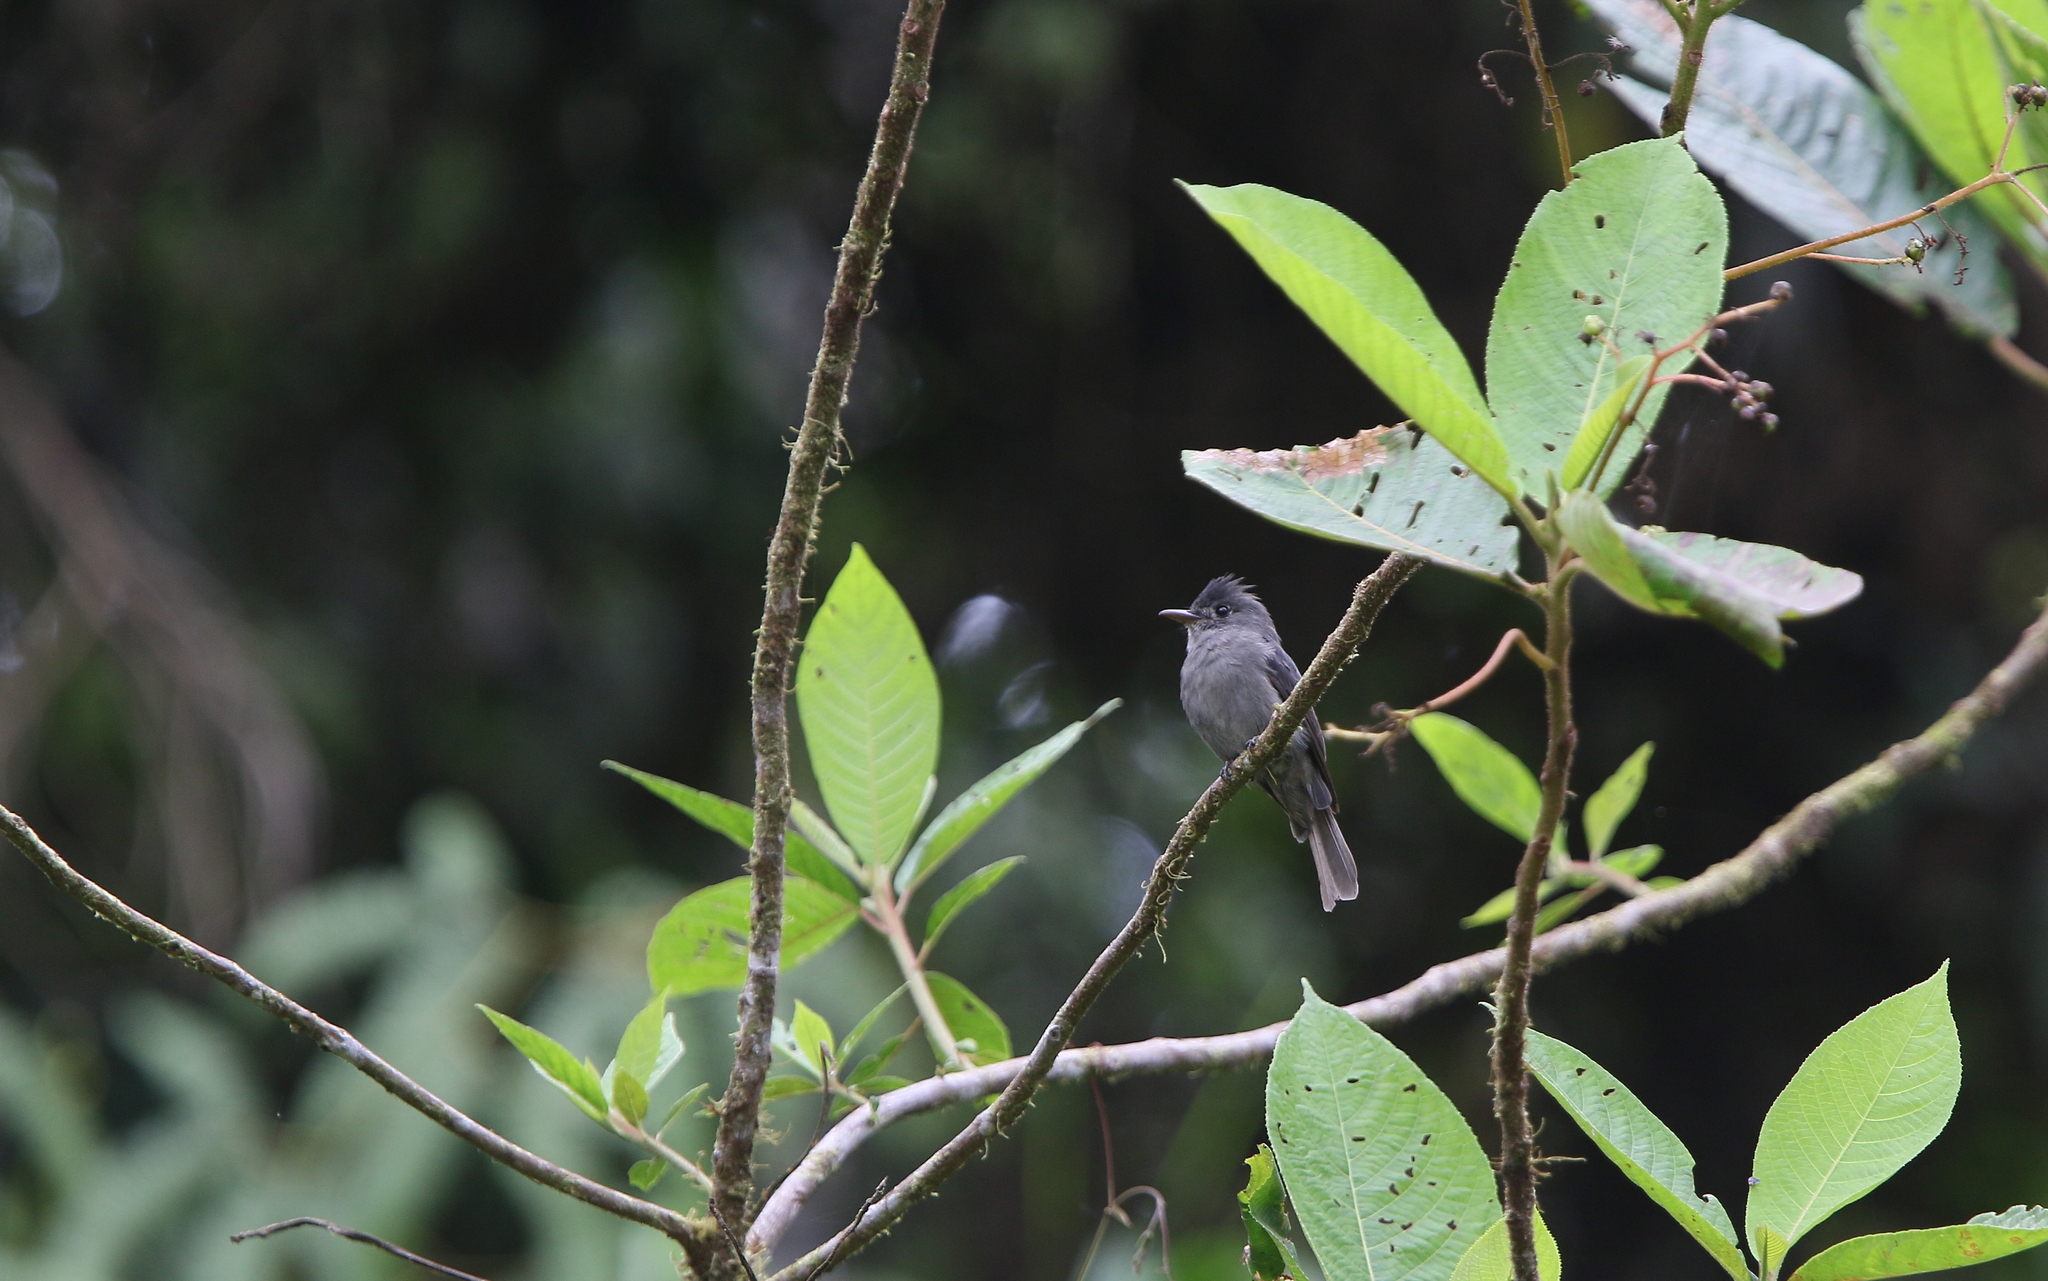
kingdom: Animalia
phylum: Chordata
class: Aves
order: Passeriformes
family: Tyrannidae
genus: Contopus
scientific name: Contopus fumigatus
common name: Smoke-colored pewee
